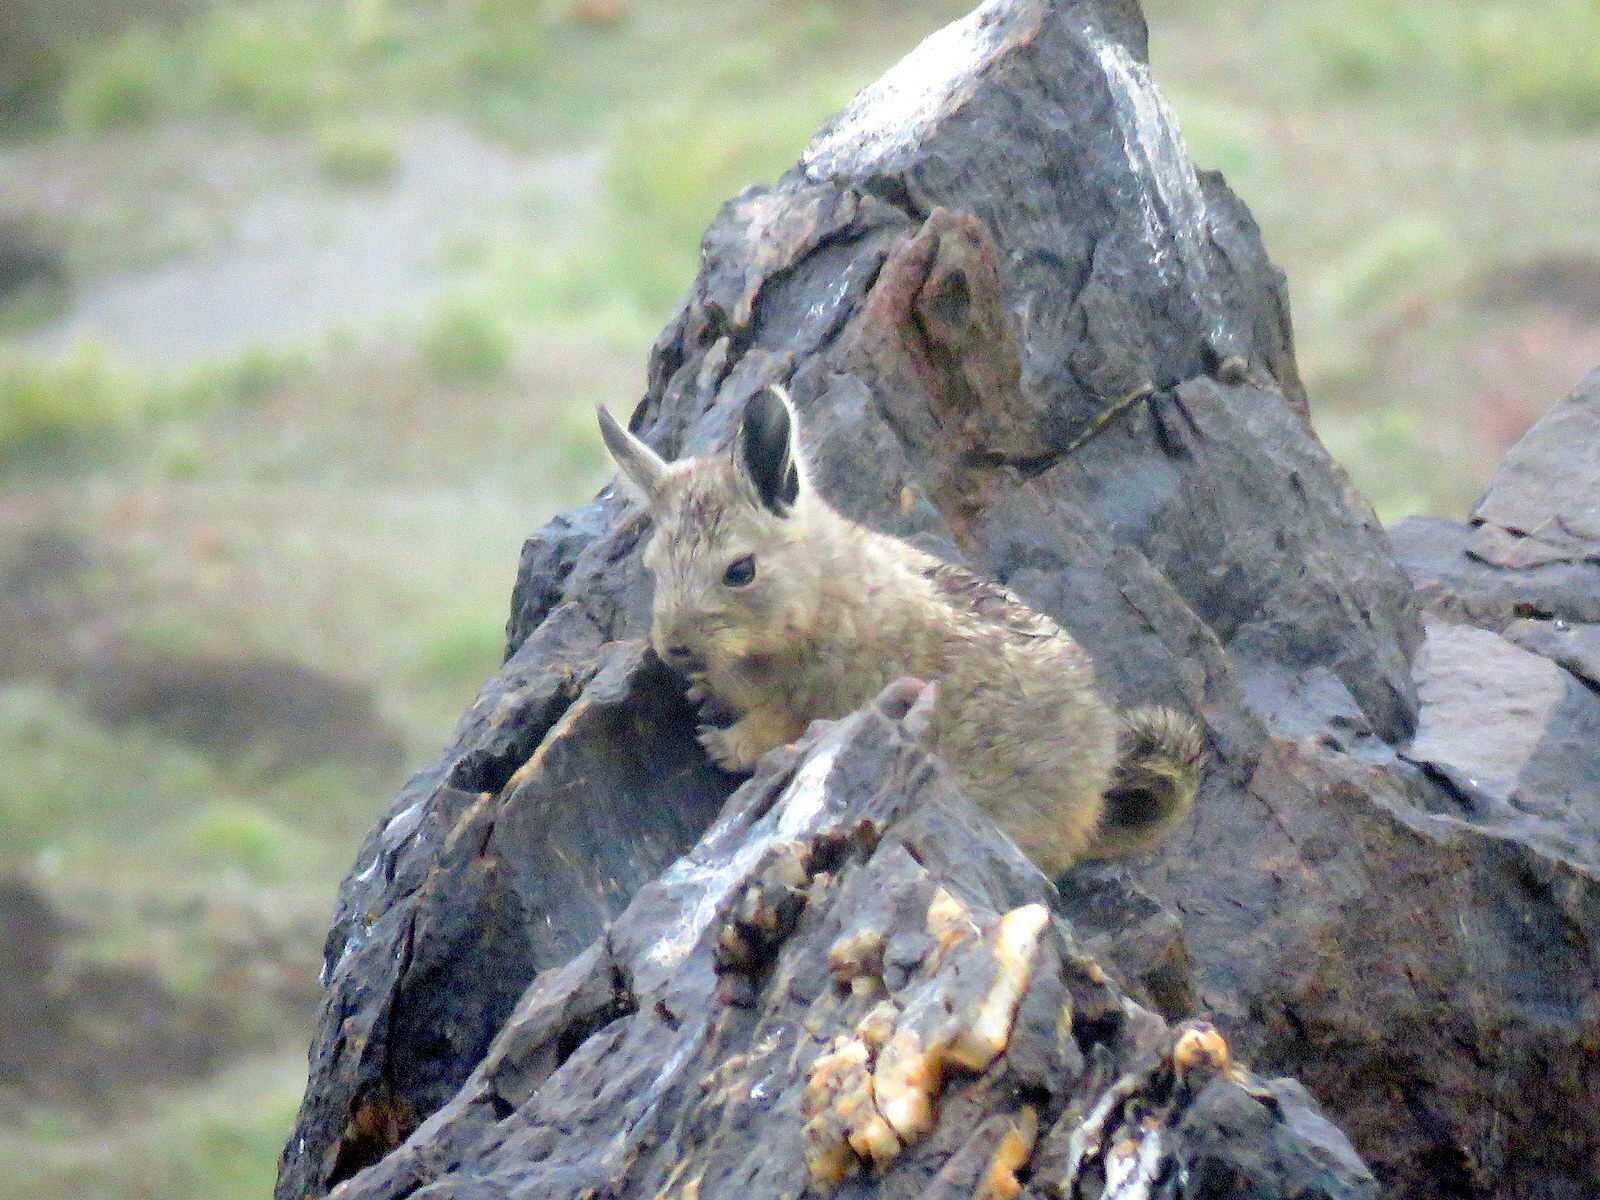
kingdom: Animalia
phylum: Chordata
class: Mammalia
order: Rodentia
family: Chinchillidae
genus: Lagidium
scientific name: Lagidium viscacia
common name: Southern viscacha
